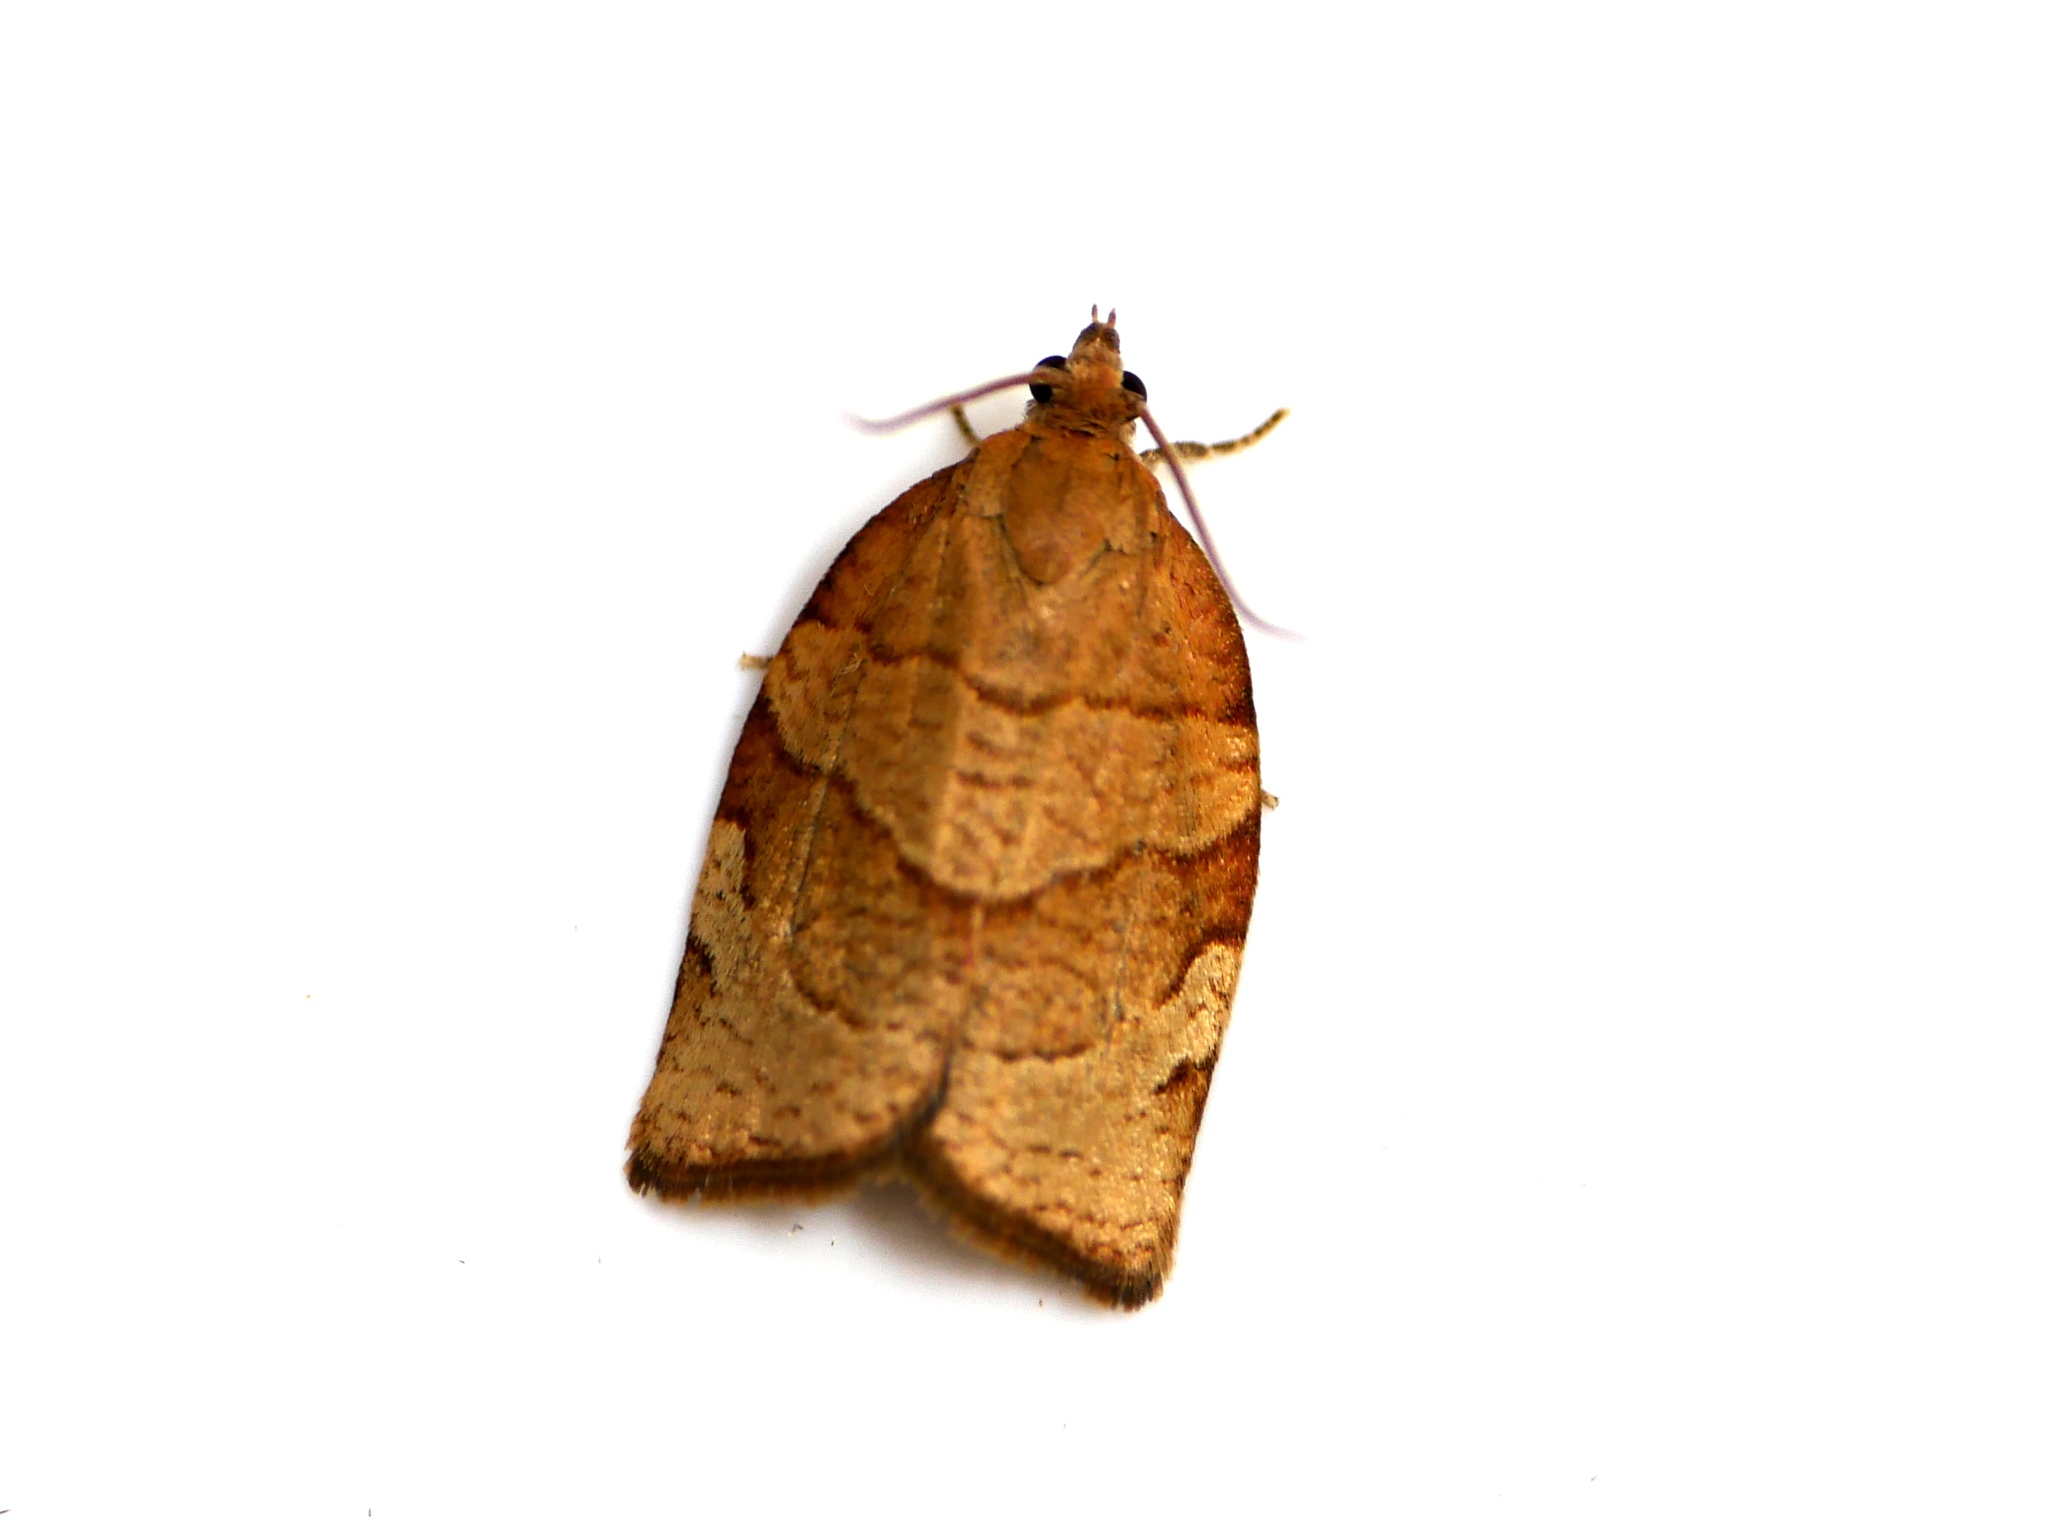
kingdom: Animalia
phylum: Arthropoda
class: Insecta
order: Lepidoptera
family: Tortricidae
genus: Pandemis
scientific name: Pandemis cerasana
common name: Barred fruit-tree tortrix
